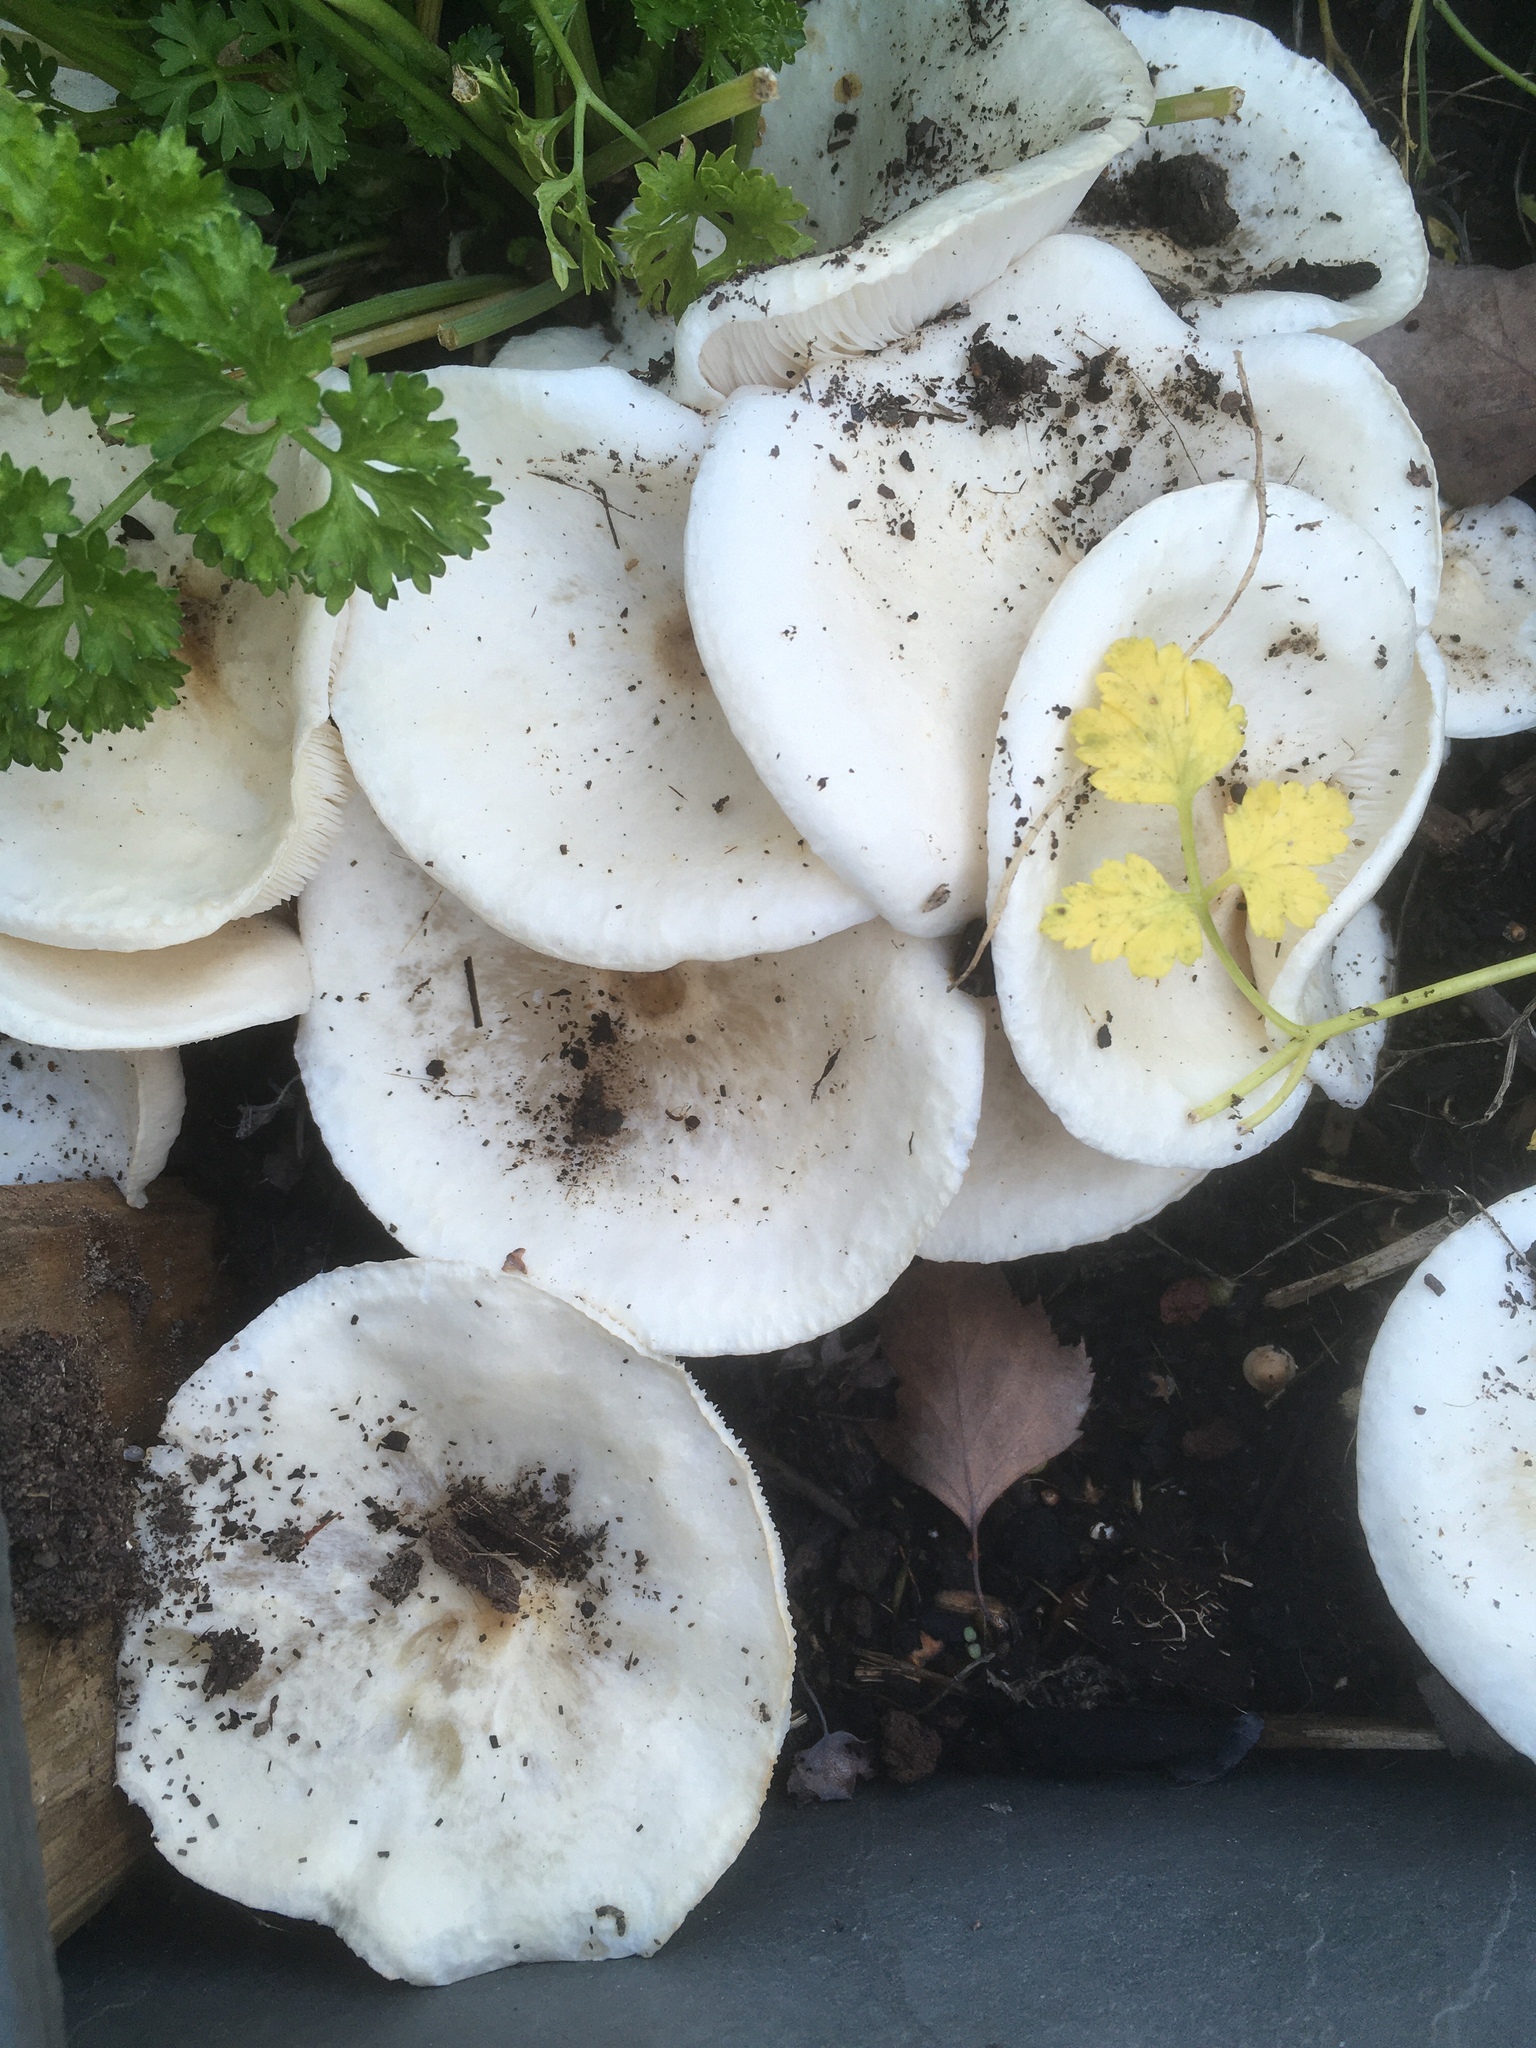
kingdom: Fungi
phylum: Basidiomycota
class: Agaricomycetes
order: Agaricales
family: Tricholomataceae
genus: Melanoleuca
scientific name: Melanoleuca verrucipes
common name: Warty cavalier
